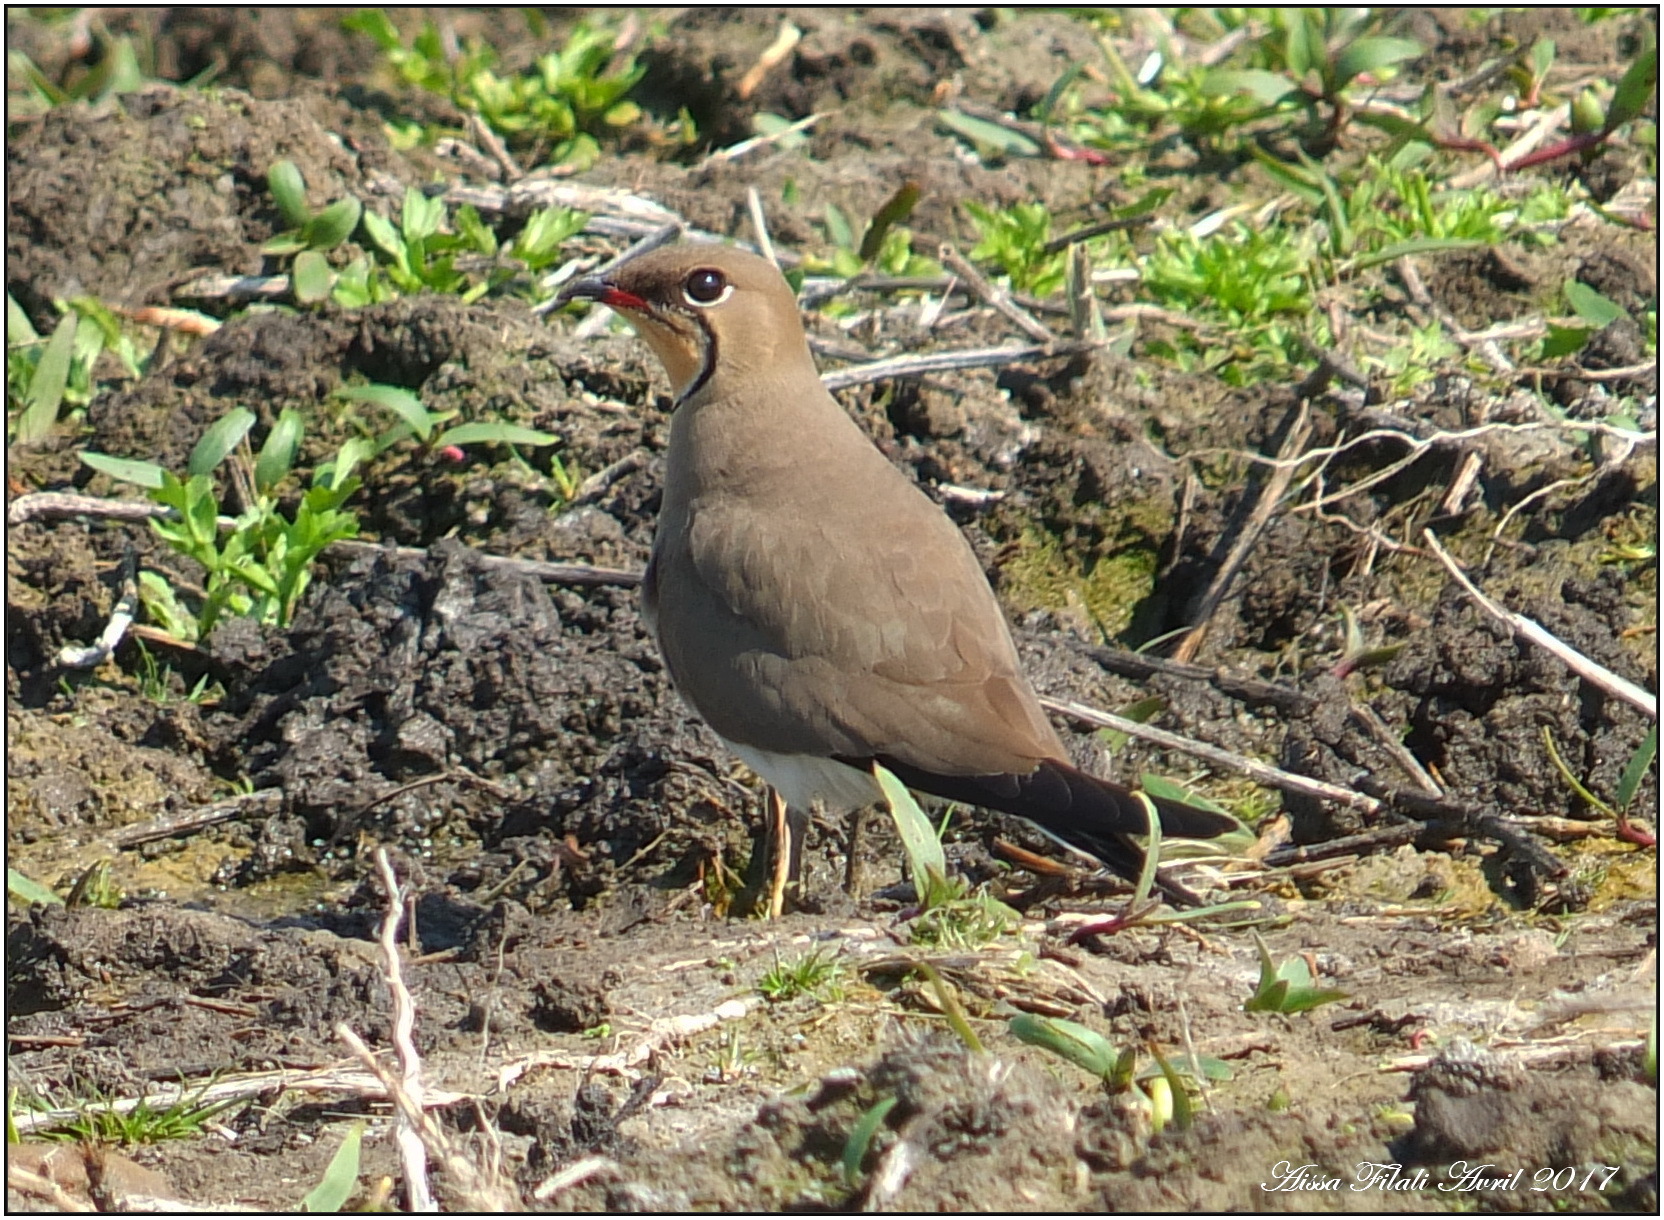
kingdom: Animalia
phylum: Chordata
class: Aves
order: Charadriiformes
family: Glareolidae
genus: Glareola
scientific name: Glareola pratincola
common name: Collared pratincole
